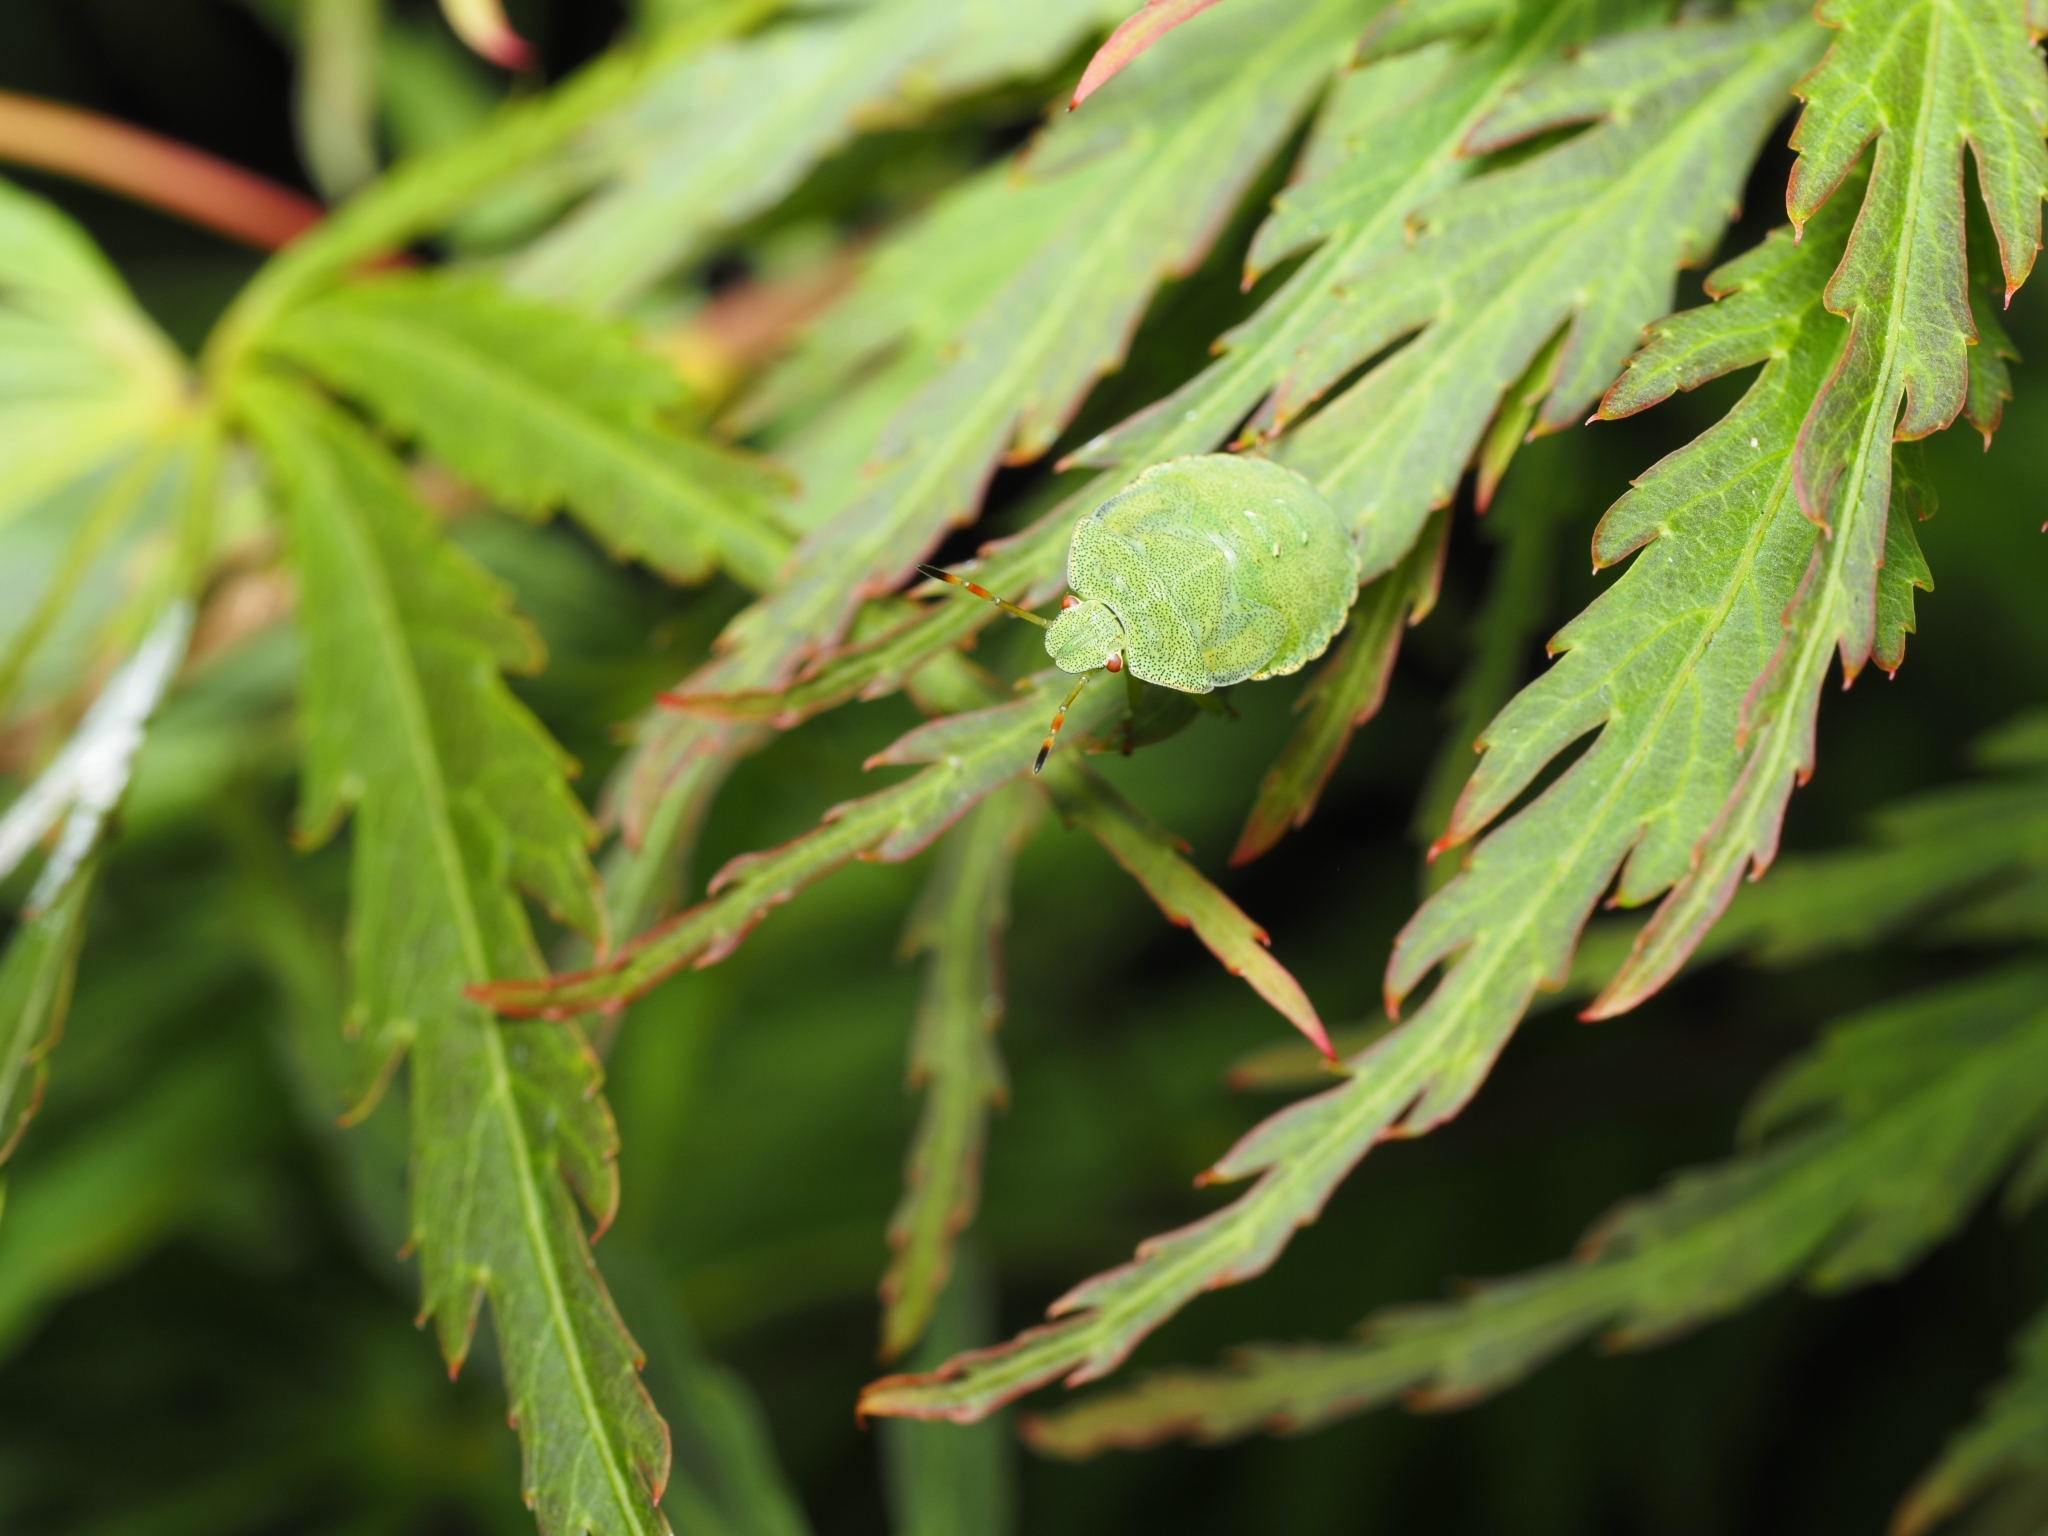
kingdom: Animalia
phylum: Arthropoda
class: Insecta
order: Hemiptera
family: Pentatomidae
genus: Palomena
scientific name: Palomena prasina
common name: Green shieldbug
